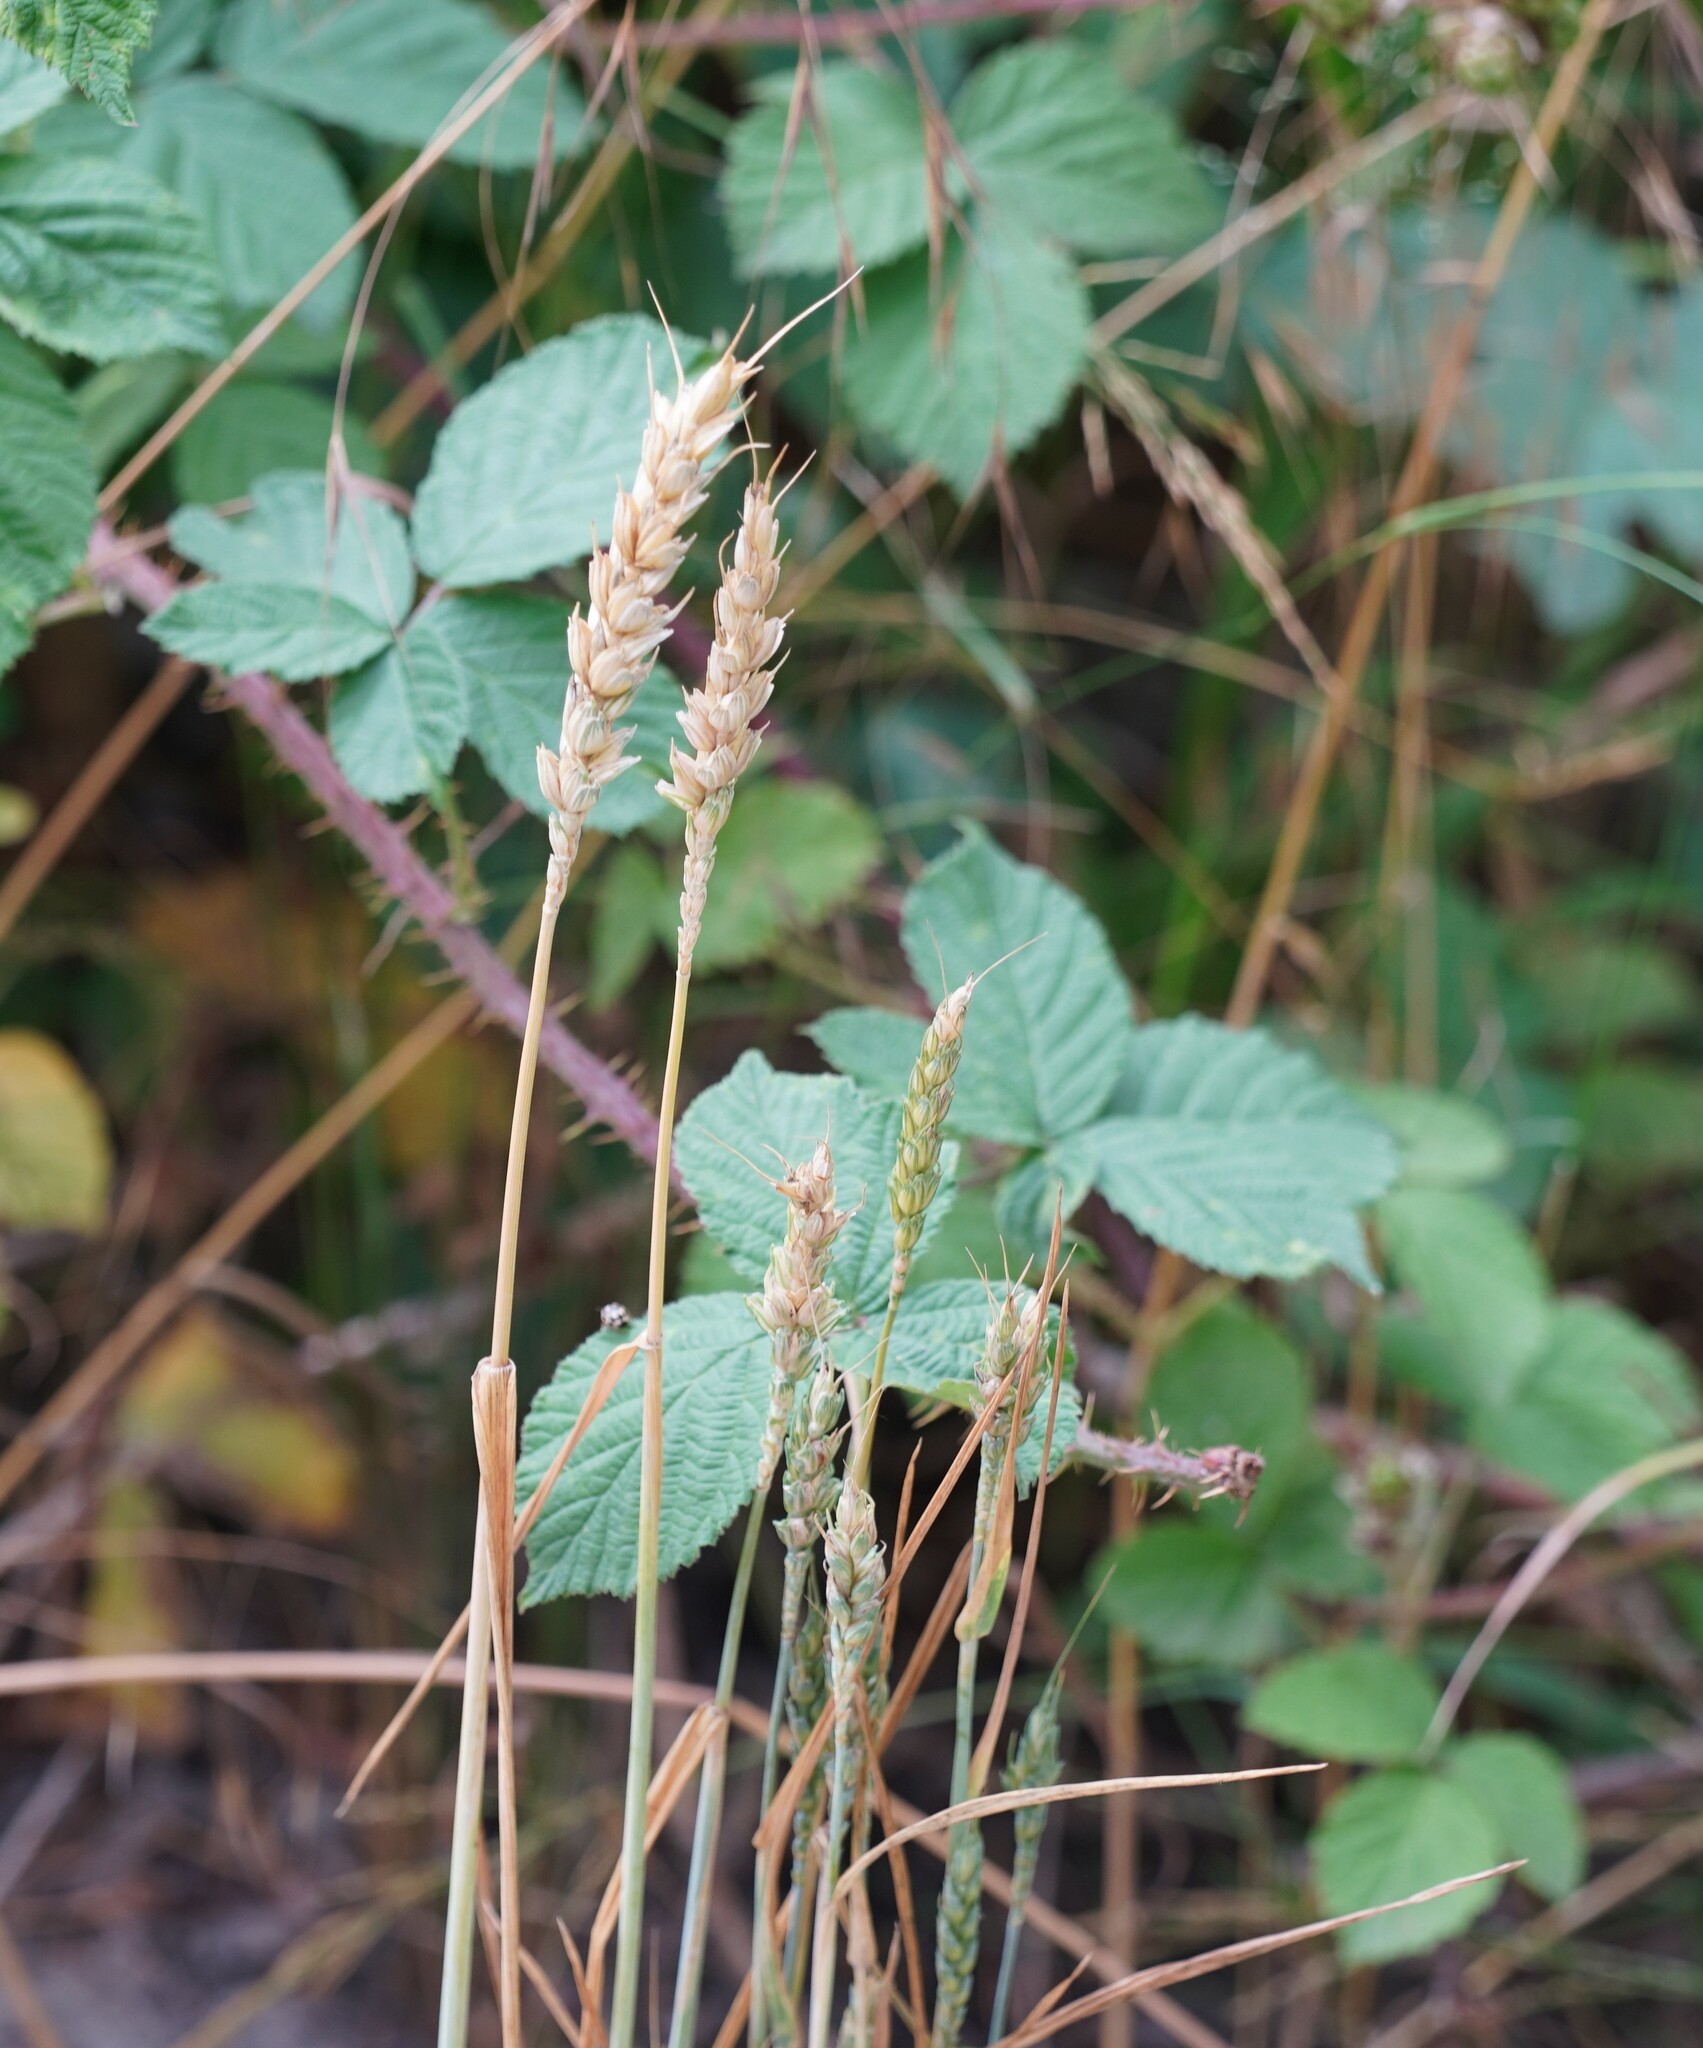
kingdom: Plantae
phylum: Tracheophyta
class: Liliopsida
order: Poales
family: Poaceae
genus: Triticum
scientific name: Triticum aestivum
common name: Common wheat
